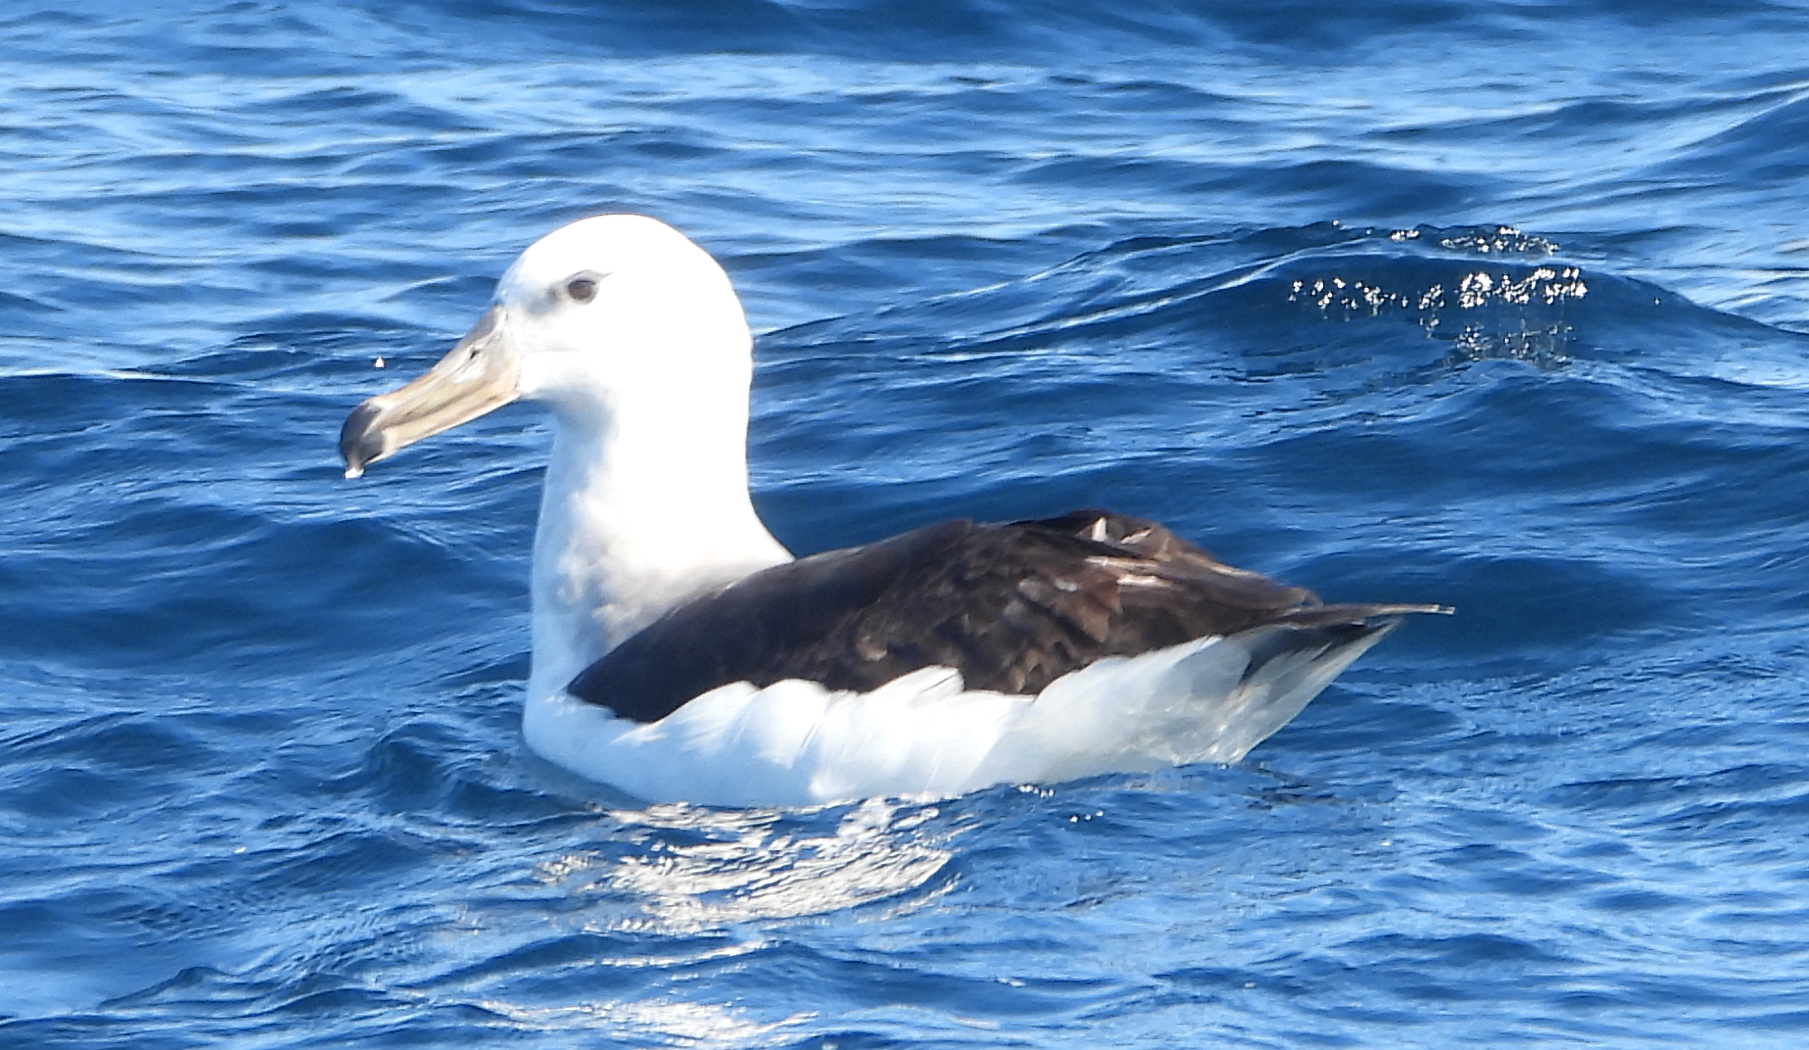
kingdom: Animalia
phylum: Chordata
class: Aves
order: Procellariiformes
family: Diomedeidae
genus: Thalassarche
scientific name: Thalassarche melanophris
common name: Black-browed albatross
